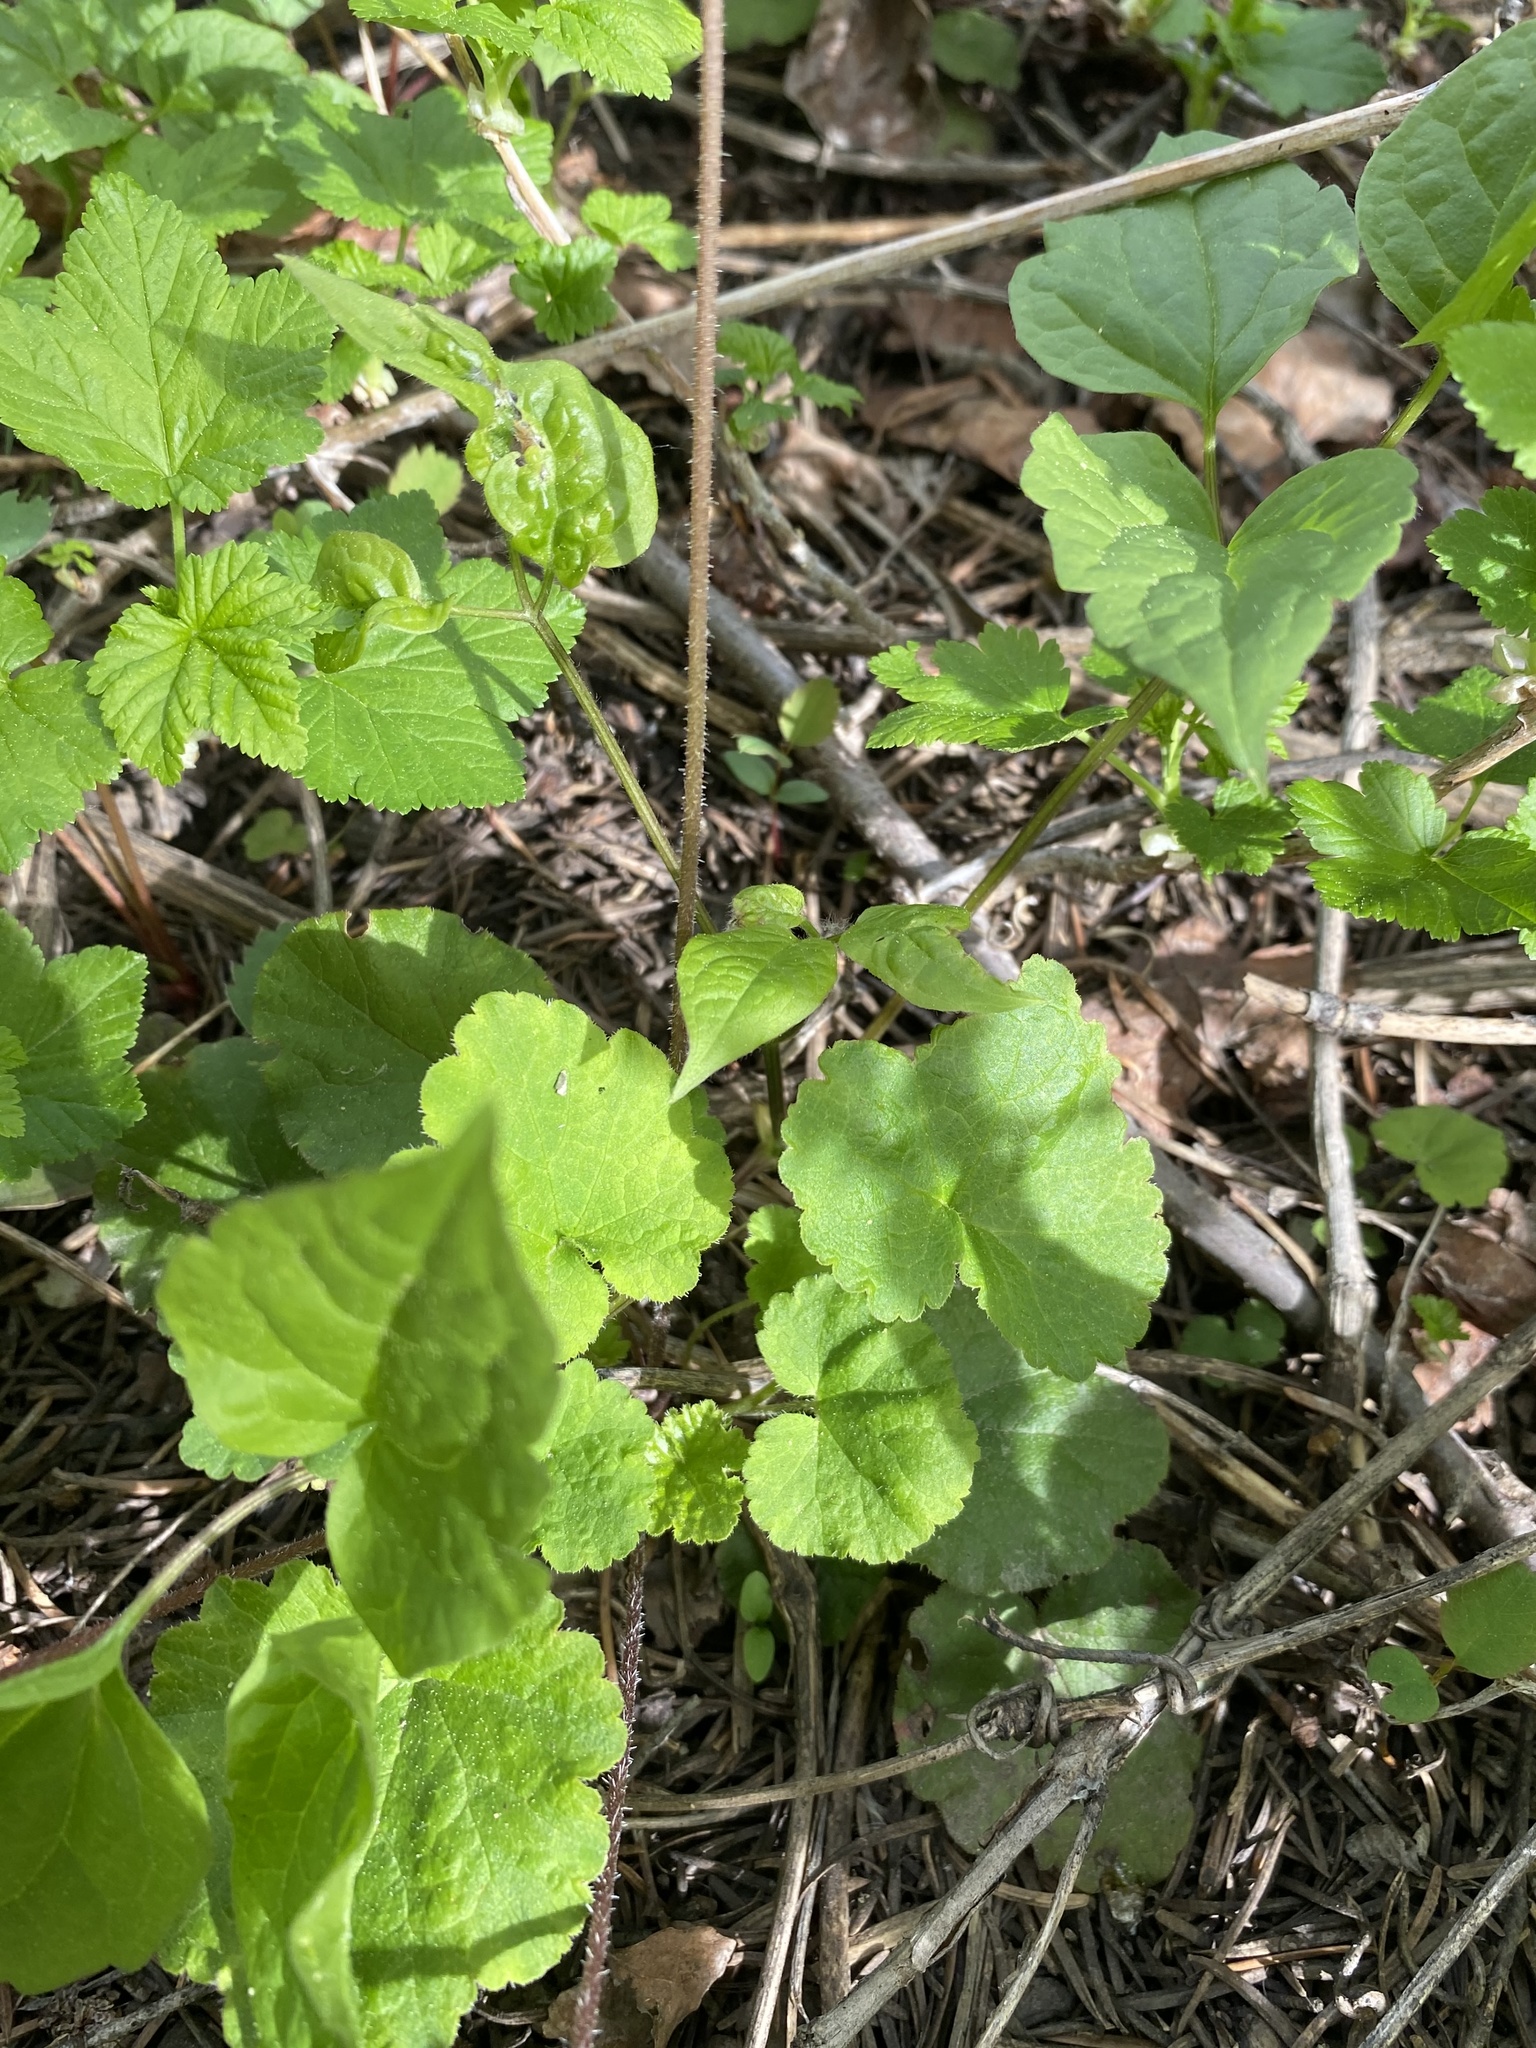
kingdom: Plantae
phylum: Tracheophyta
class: Magnoliopsida
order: Saxifragales
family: Saxifragaceae
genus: Ozomelis
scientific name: Ozomelis stauropetala
